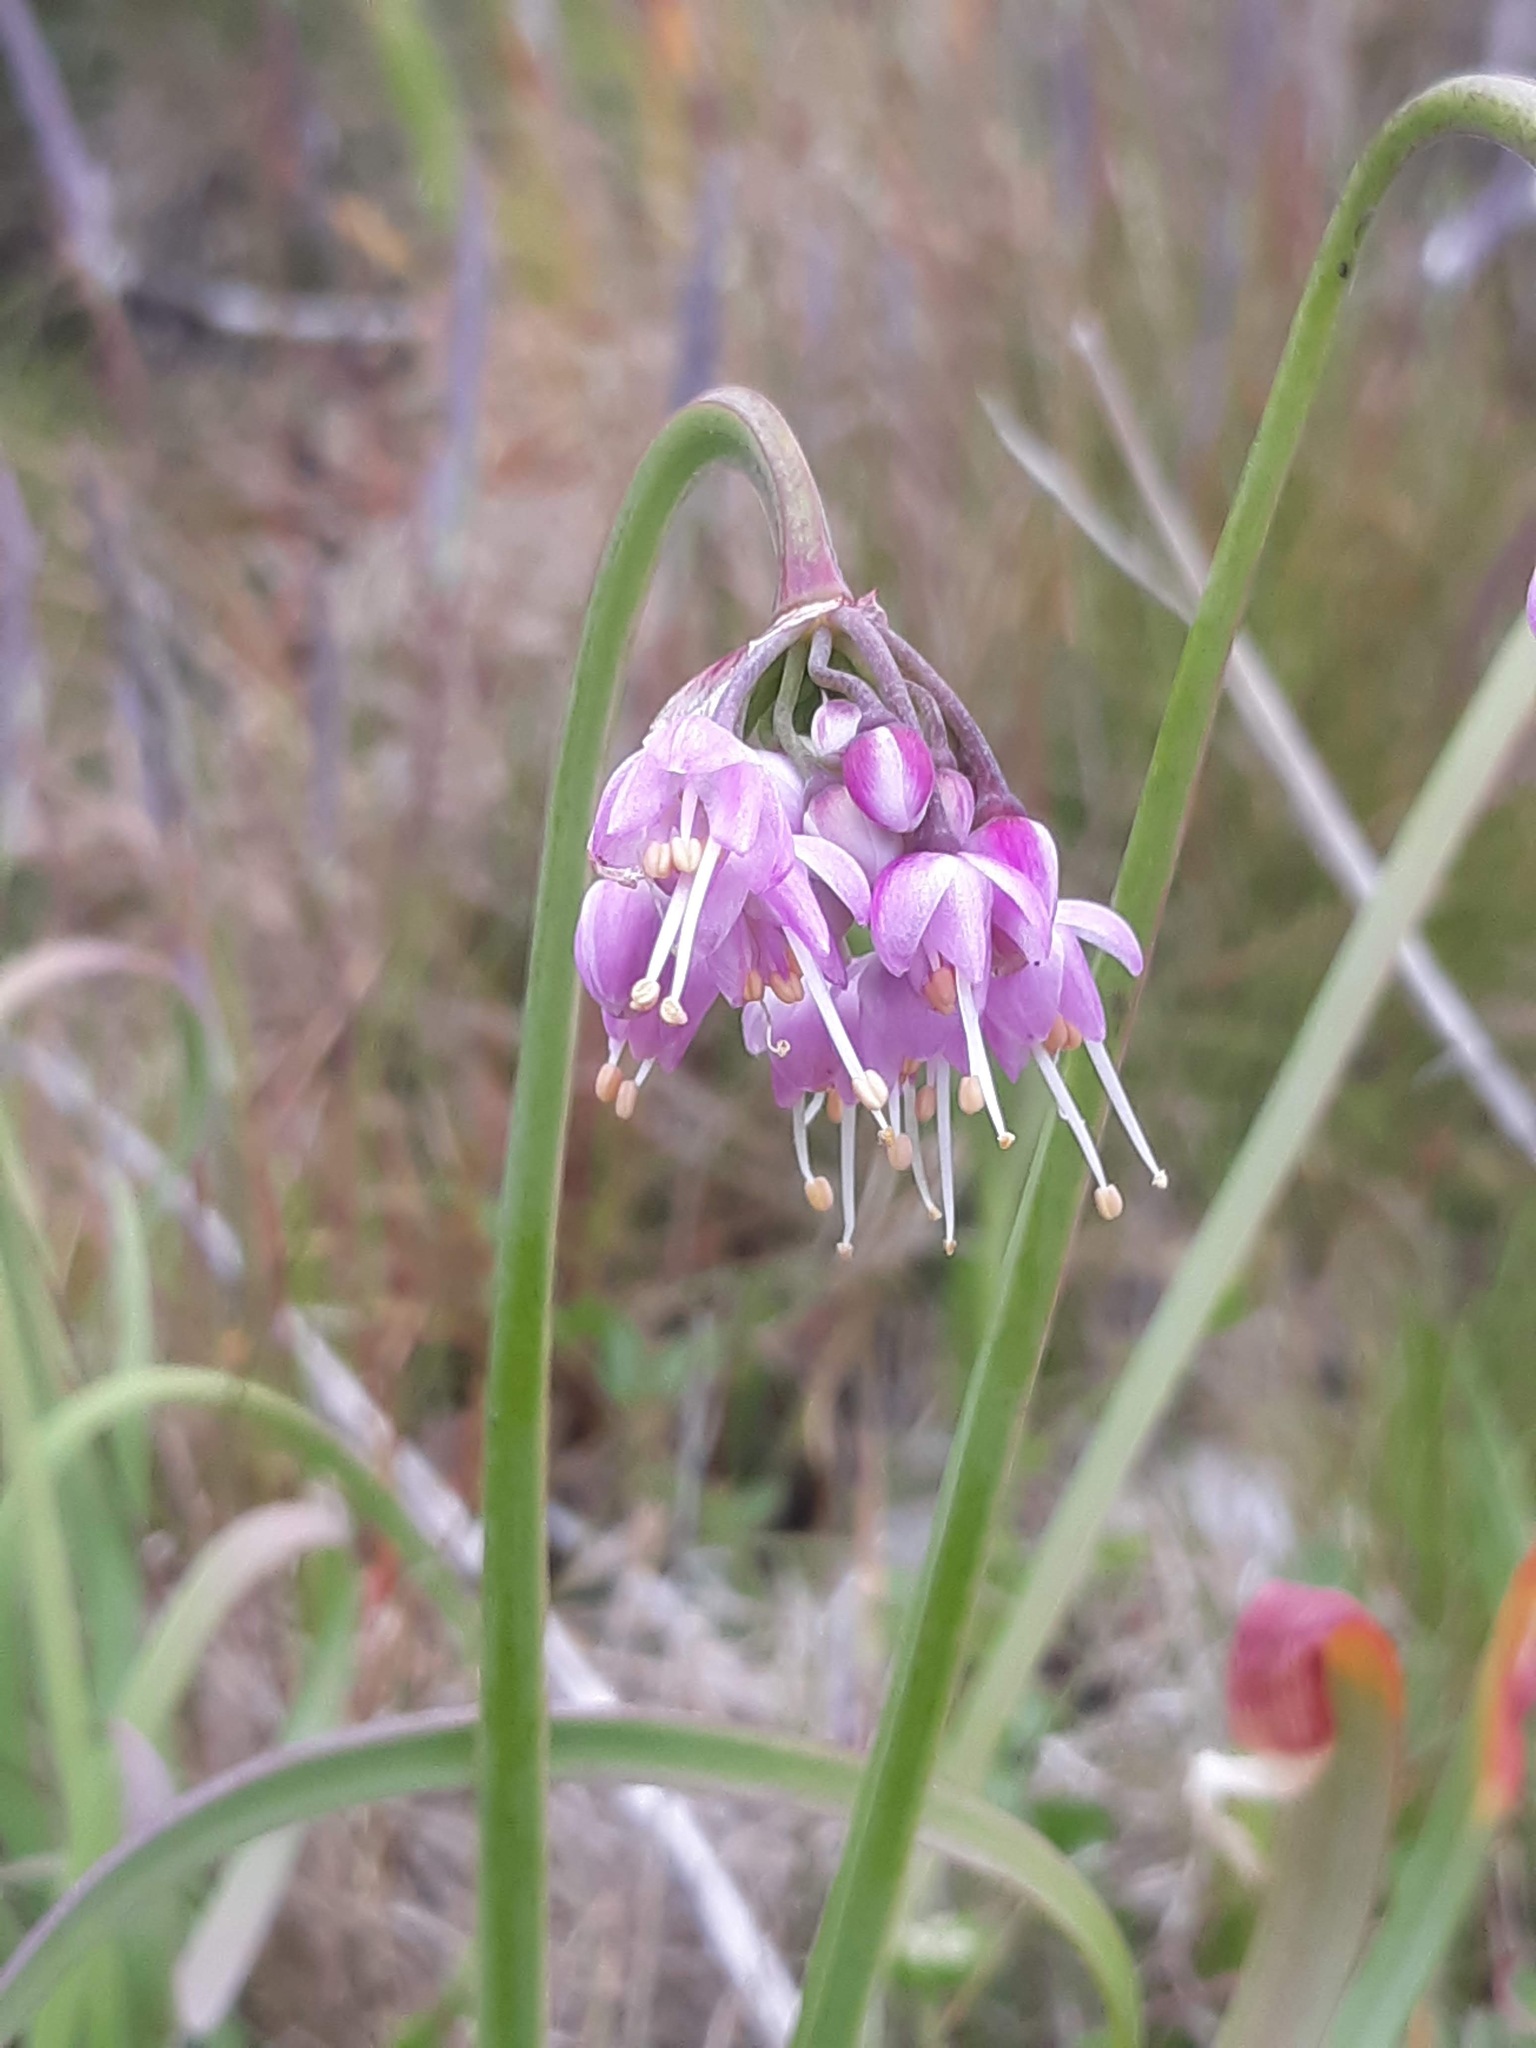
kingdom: Plantae
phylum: Tracheophyta
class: Liliopsida
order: Asparagales
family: Amaryllidaceae
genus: Allium
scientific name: Allium cernuum
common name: Nodding onion
